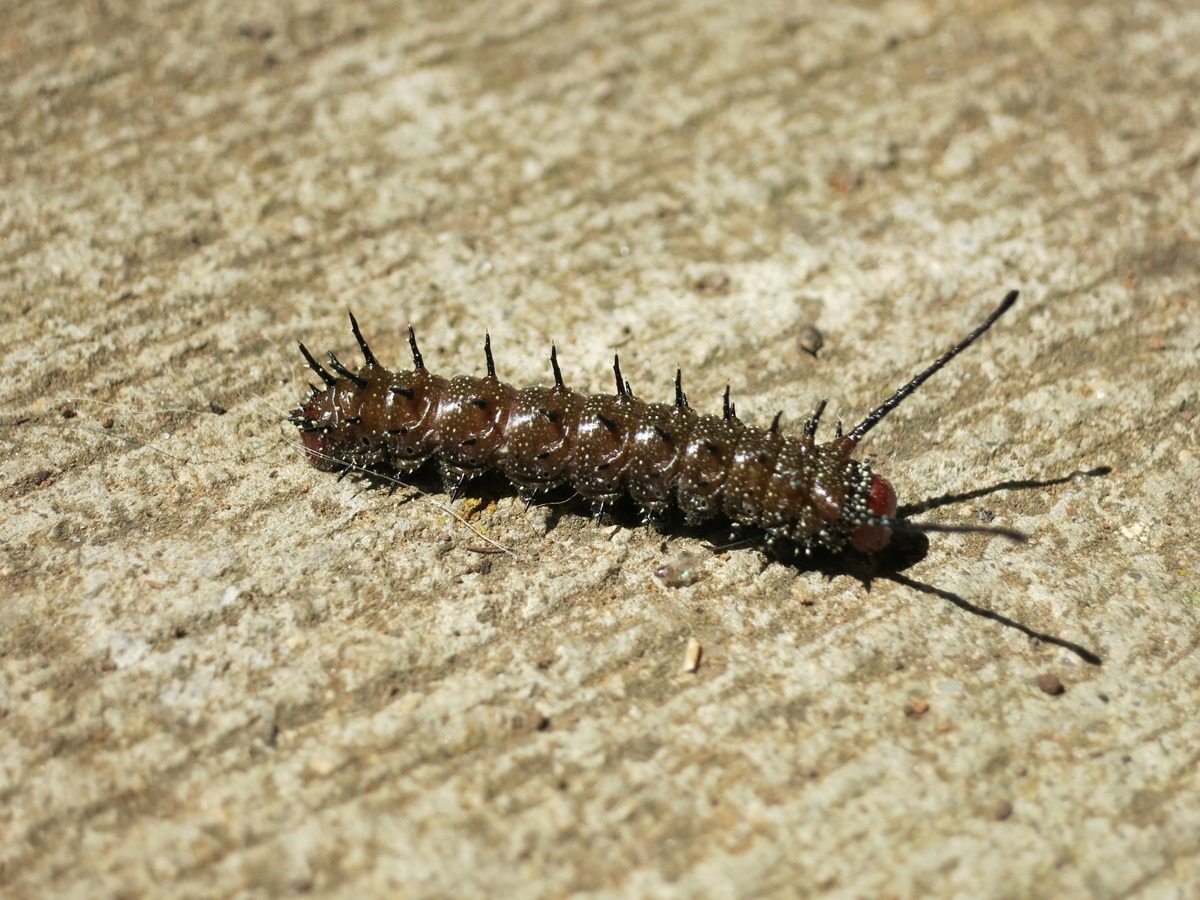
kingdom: Animalia
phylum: Arthropoda
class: Insecta
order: Lepidoptera
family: Saturniidae
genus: Anisota
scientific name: Anisota stigma
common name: Spiny oakworm moth
